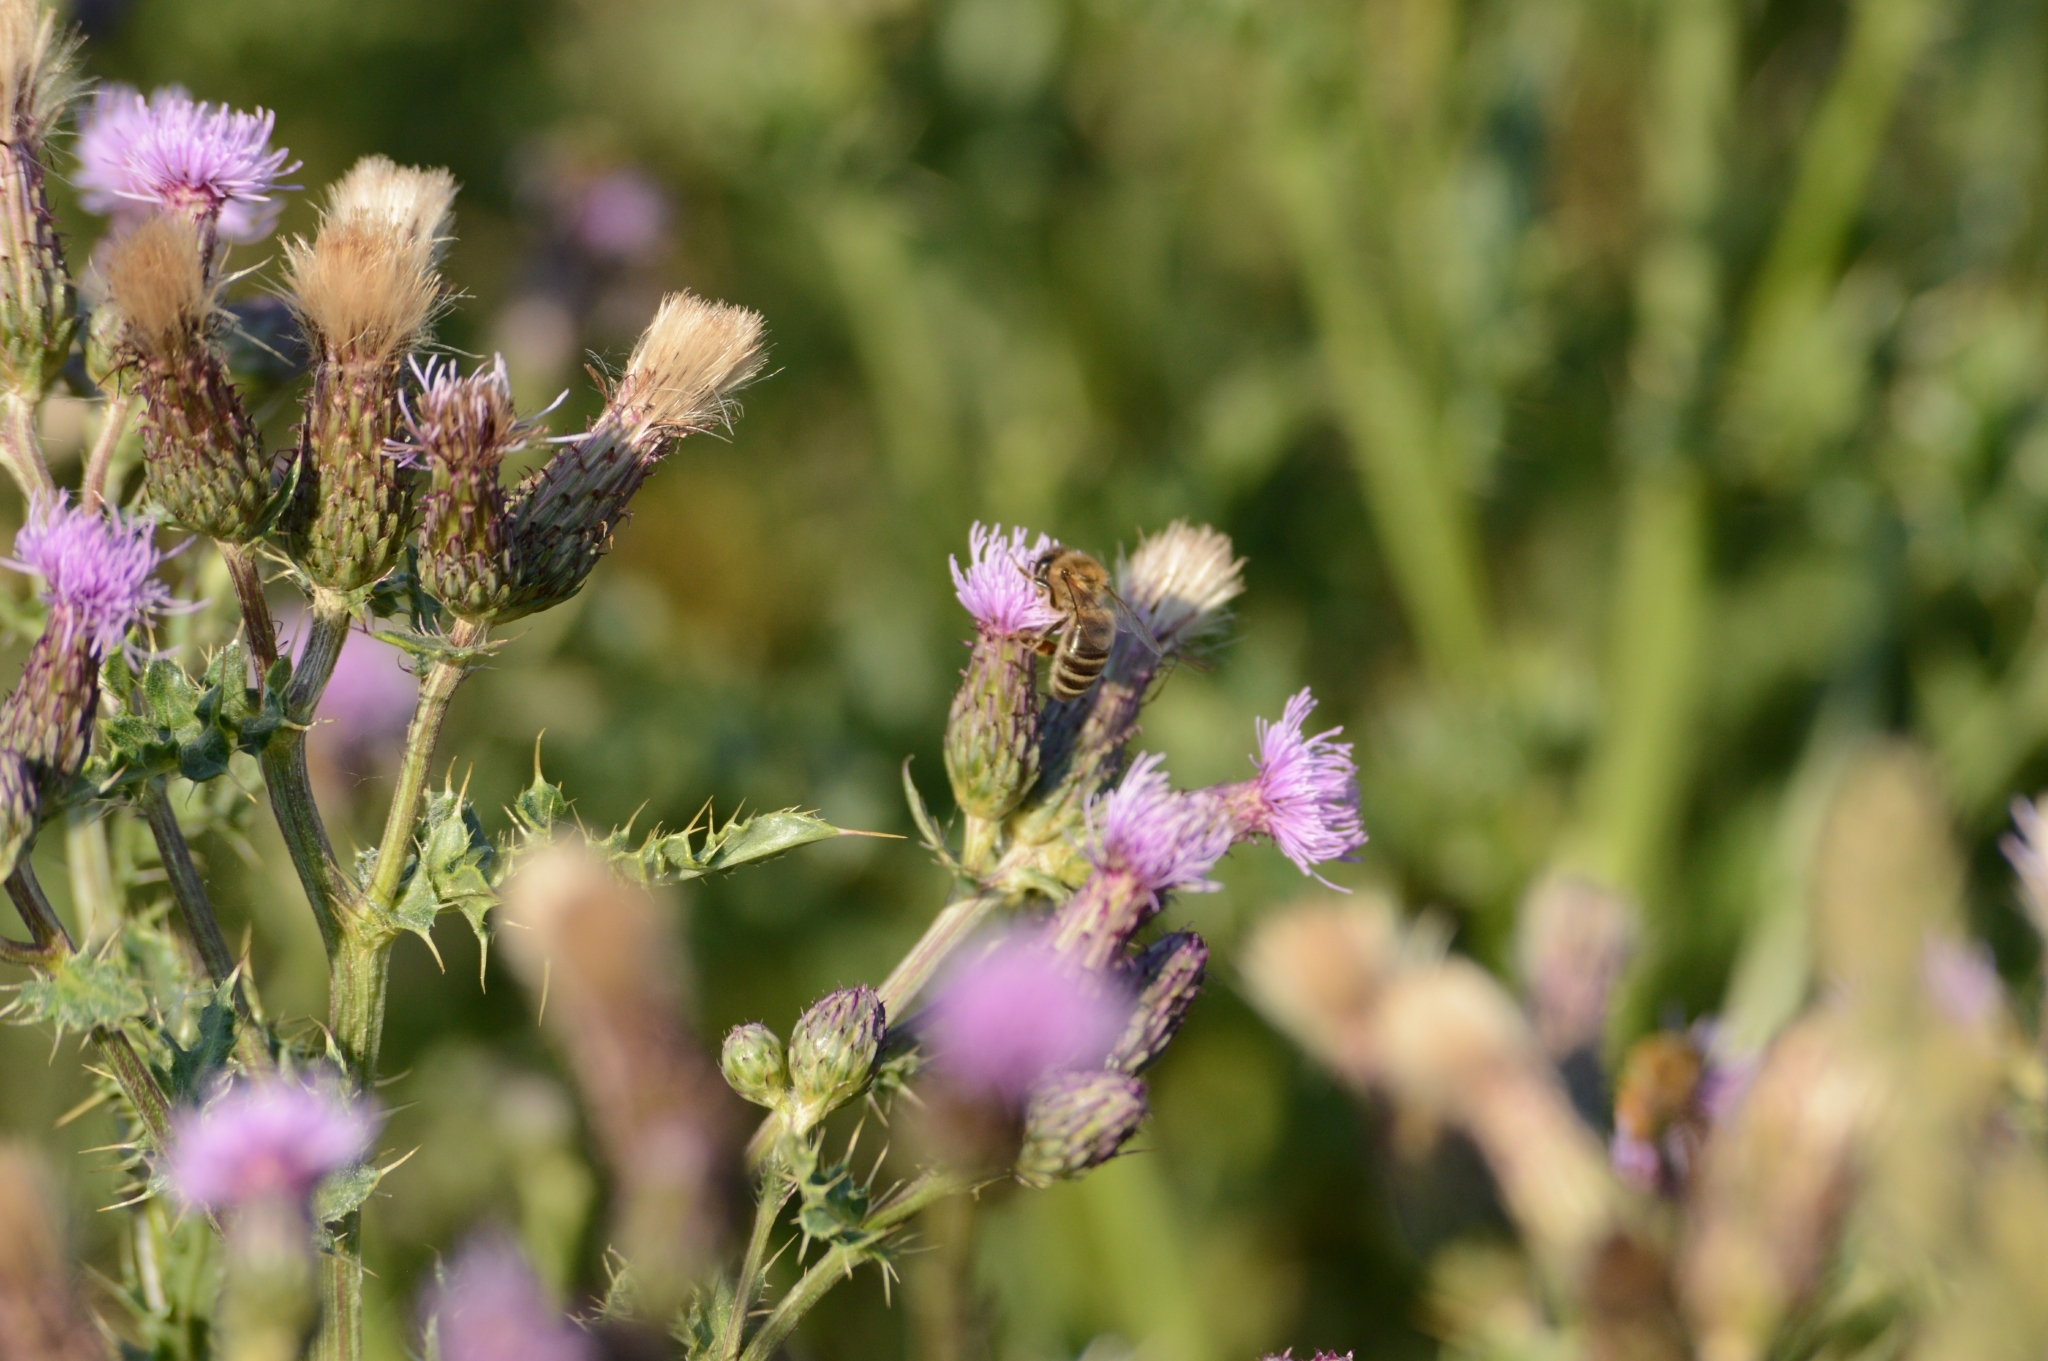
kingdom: Animalia
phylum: Arthropoda
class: Insecta
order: Hymenoptera
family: Apidae
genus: Apis
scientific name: Apis mellifera
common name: Honey bee
